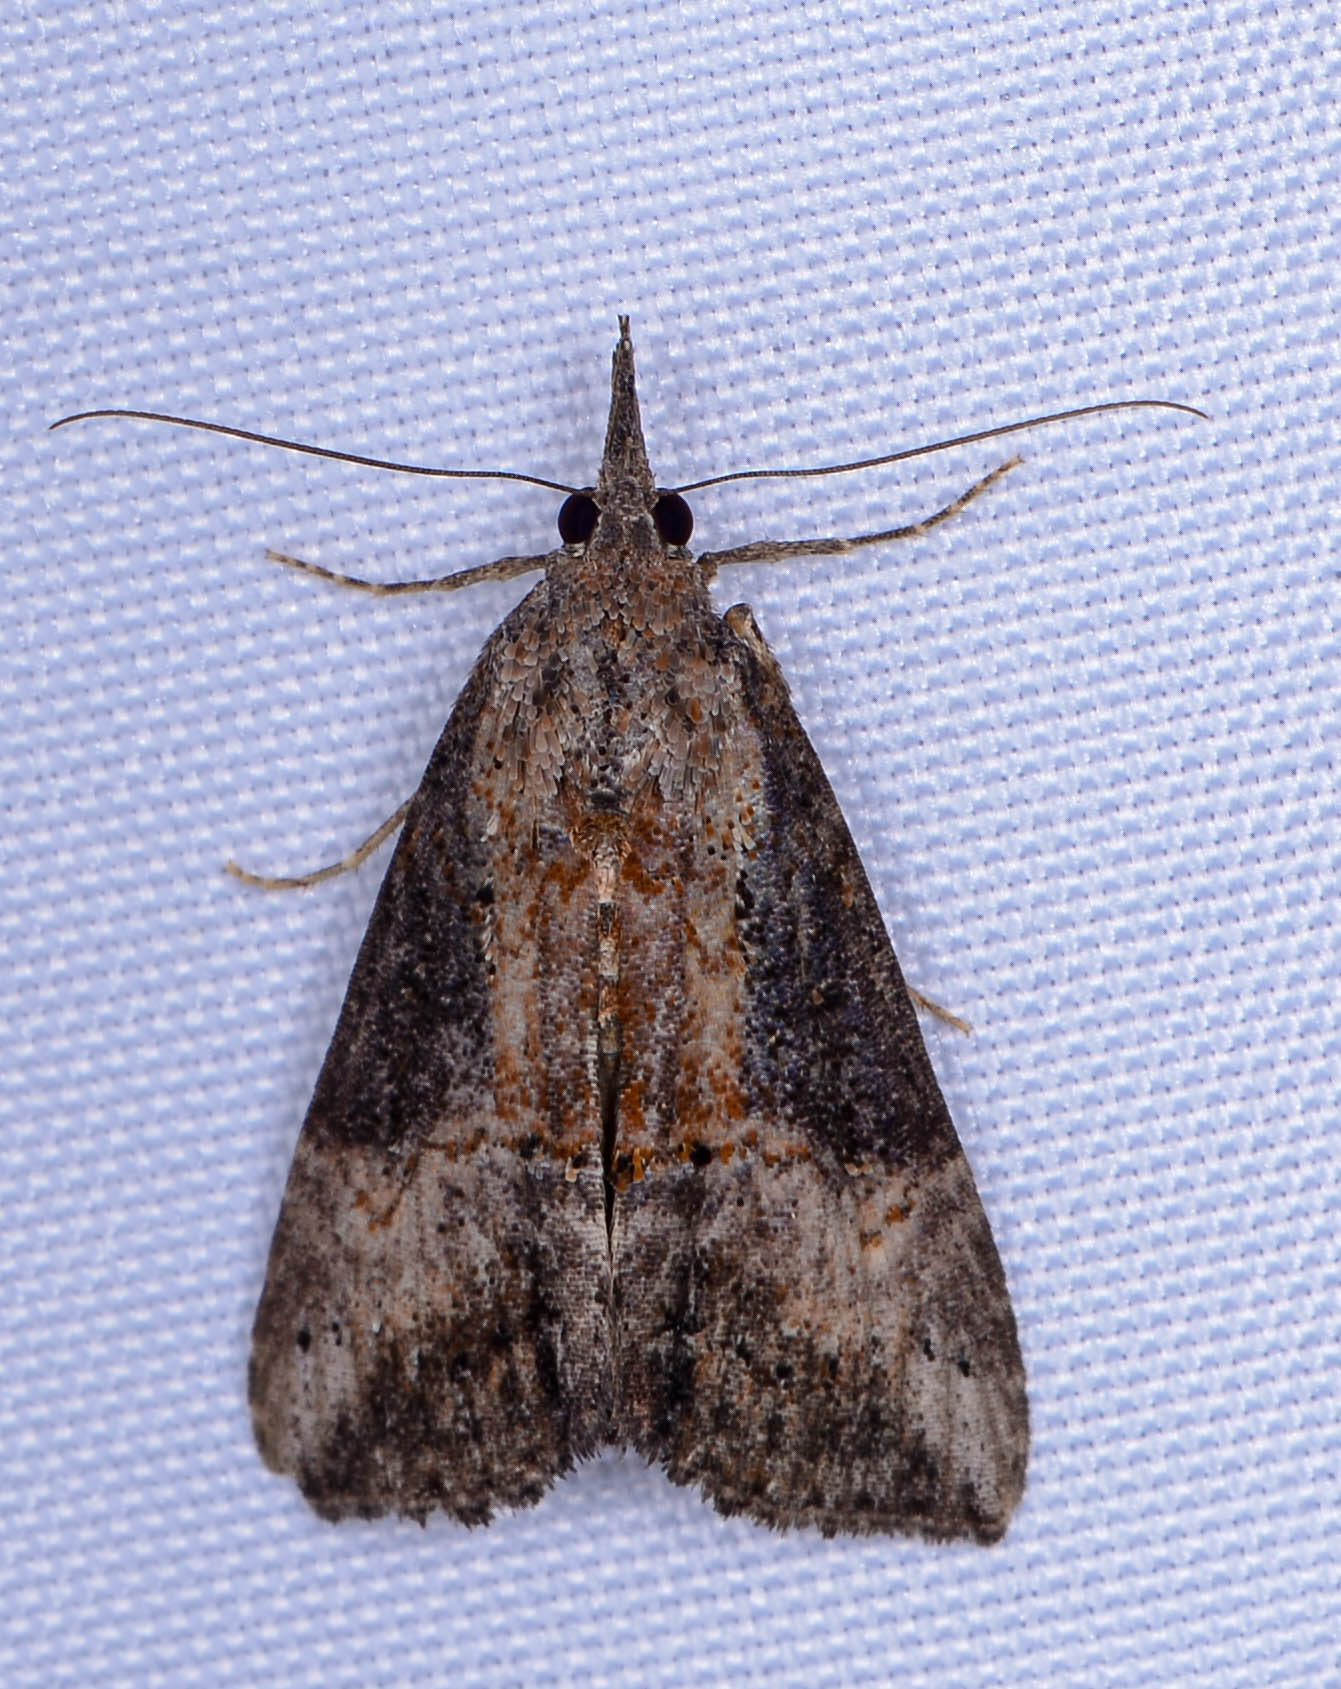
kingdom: Animalia
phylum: Arthropoda
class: Insecta
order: Lepidoptera
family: Erebidae
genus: Hypena
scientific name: Hypena scabra
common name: Green cloverworm
